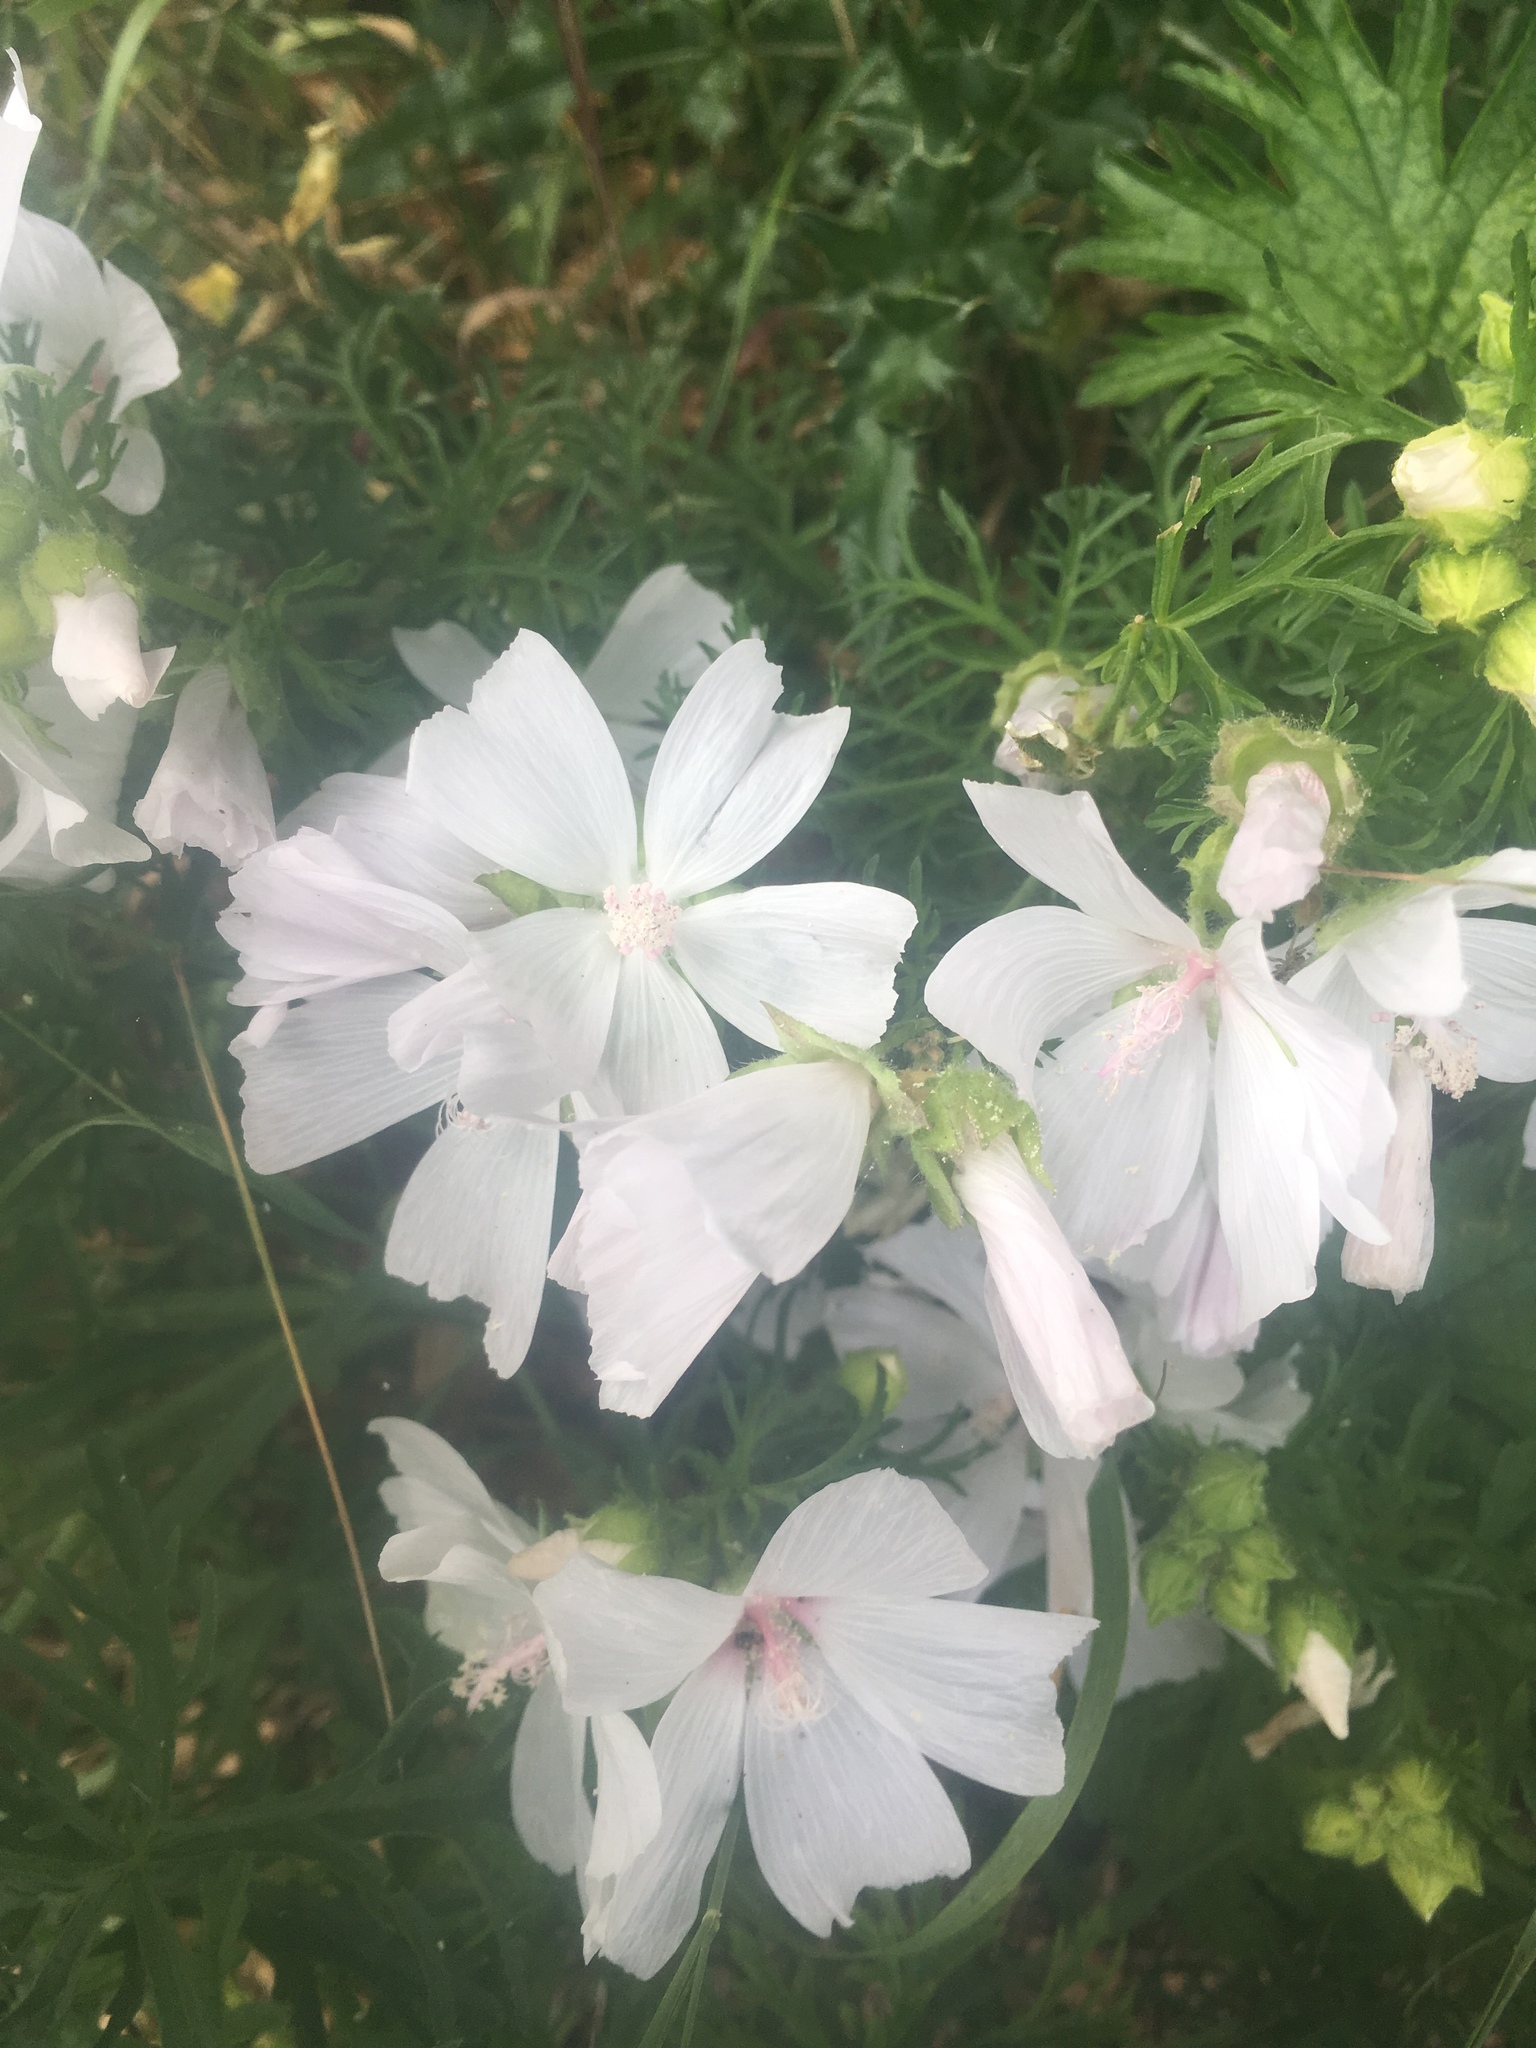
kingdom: Plantae
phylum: Tracheophyta
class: Magnoliopsida
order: Malvales
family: Malvaceae
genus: Malva
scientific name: Malva moschata
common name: Musk mallow
